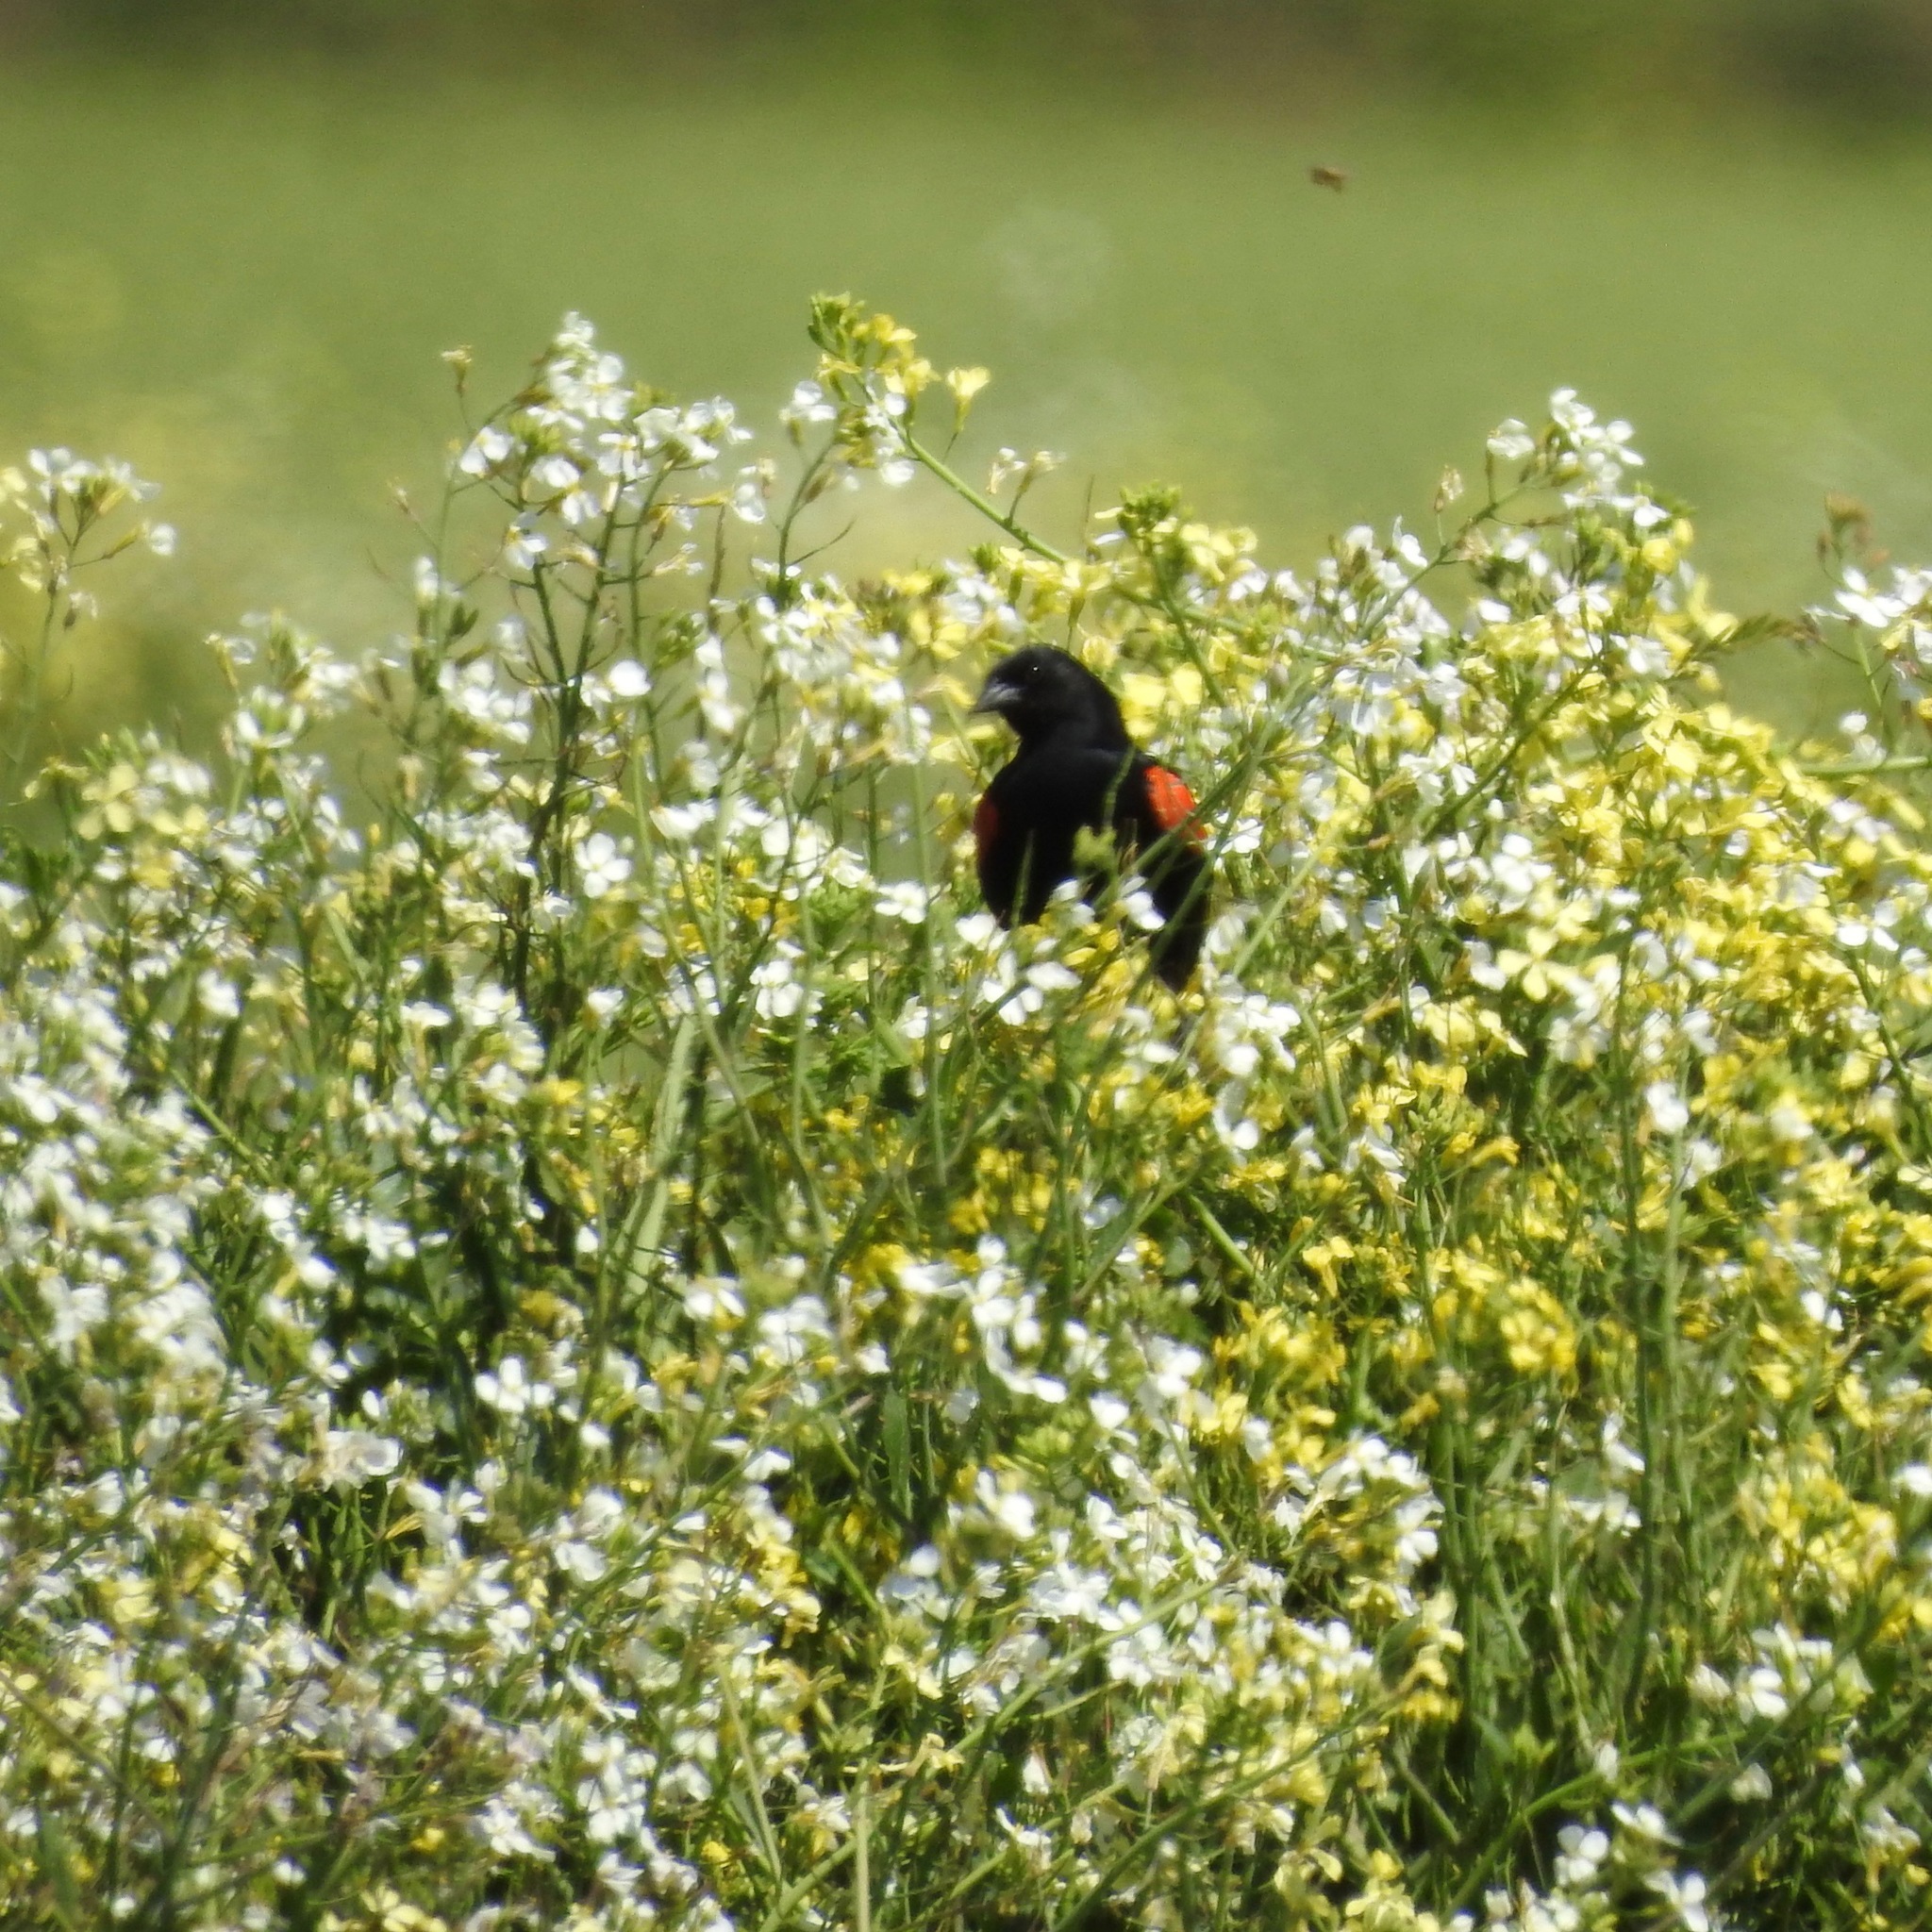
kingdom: Animalia
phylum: Chordata
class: Aves
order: Passeriformes
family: Icteridae
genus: Agelaius
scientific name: Agelaius phoeniceus
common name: Red-winged blackbird
